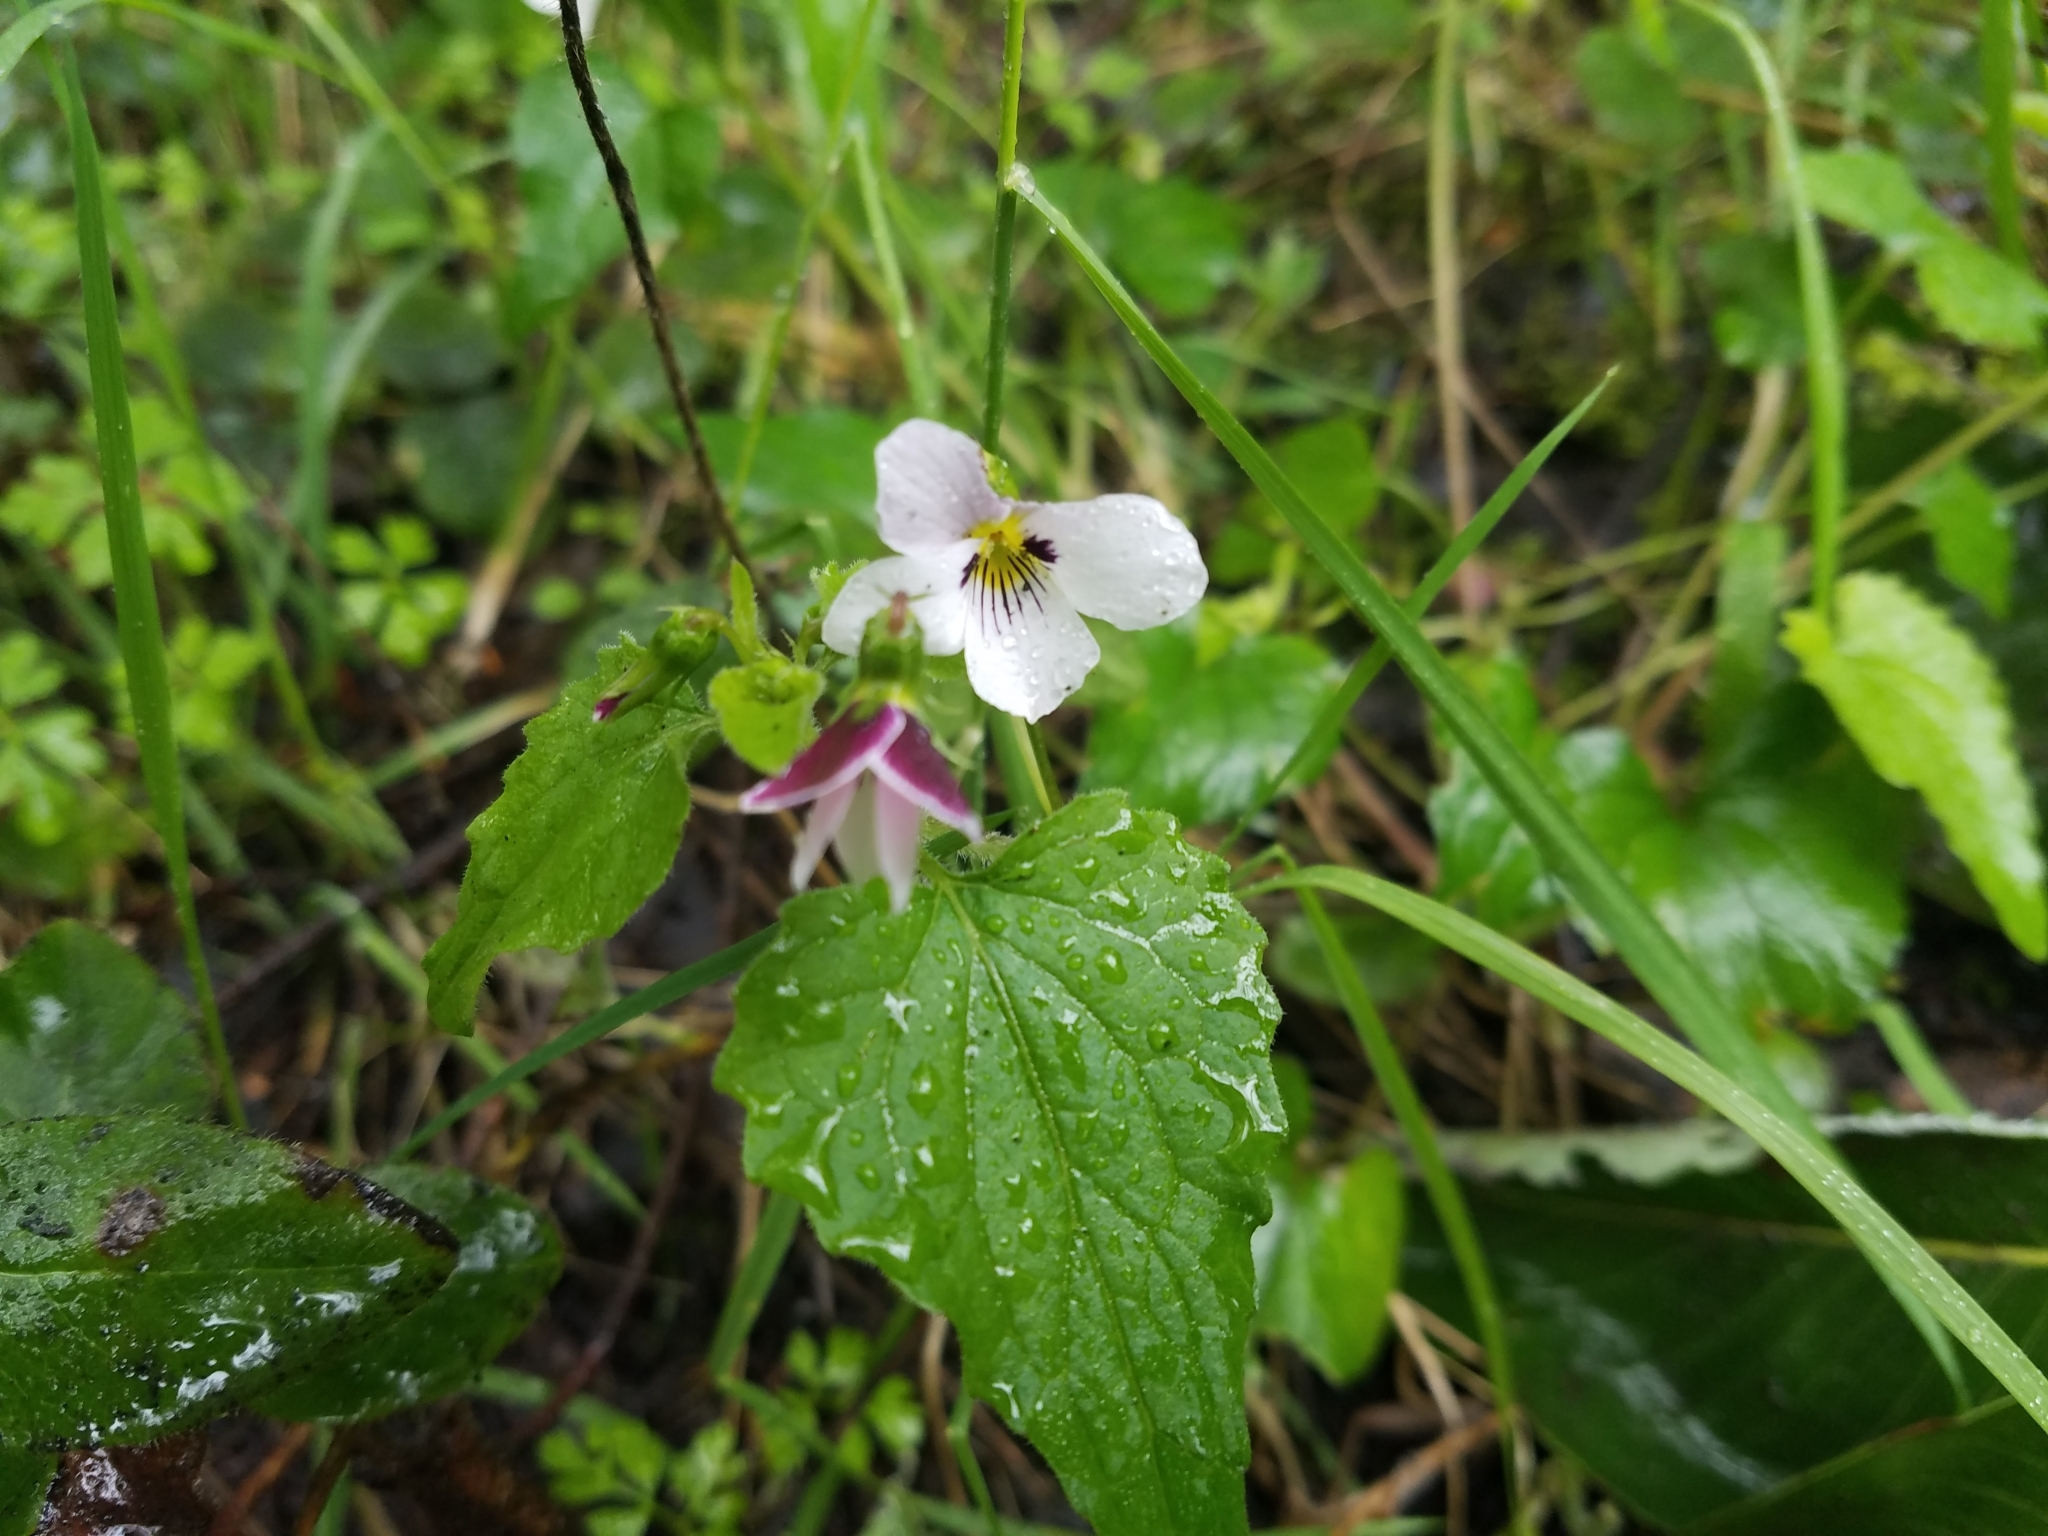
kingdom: Plantae
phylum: Tracheophyta
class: Magnoliopsida
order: Malpighiales
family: Violaceae
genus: Viola
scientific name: Viola ocellata
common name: Western heart's ease
